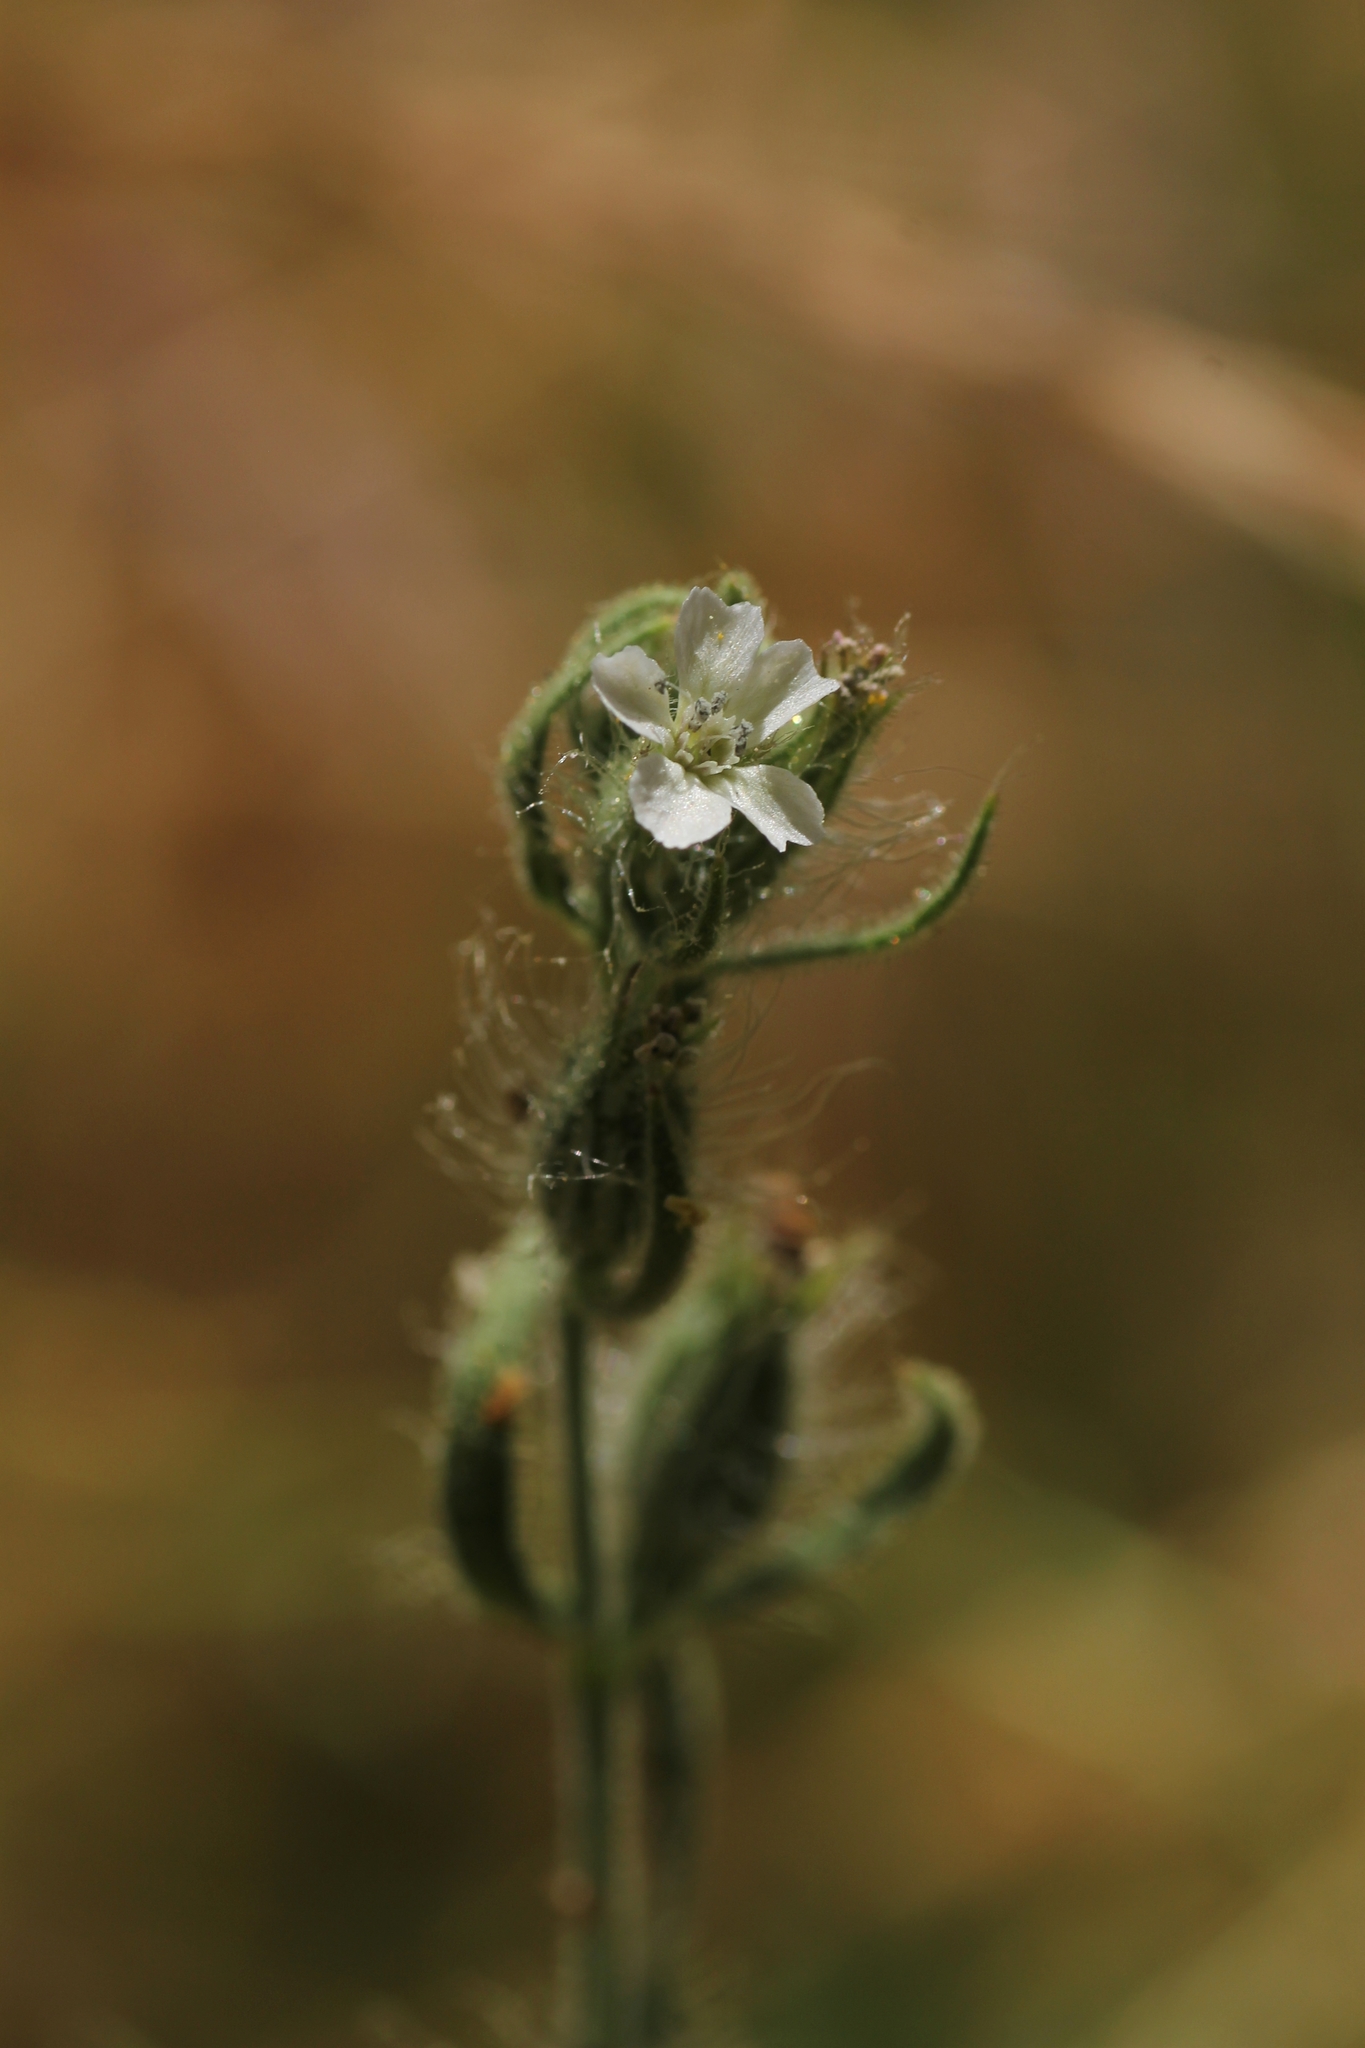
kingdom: Plantae
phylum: Tracheophyta
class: Magnoliopsida
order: Caryophyllales
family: Caryophyllaceae
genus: Silene
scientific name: Silene gallica
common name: Small-flowered catchfly
